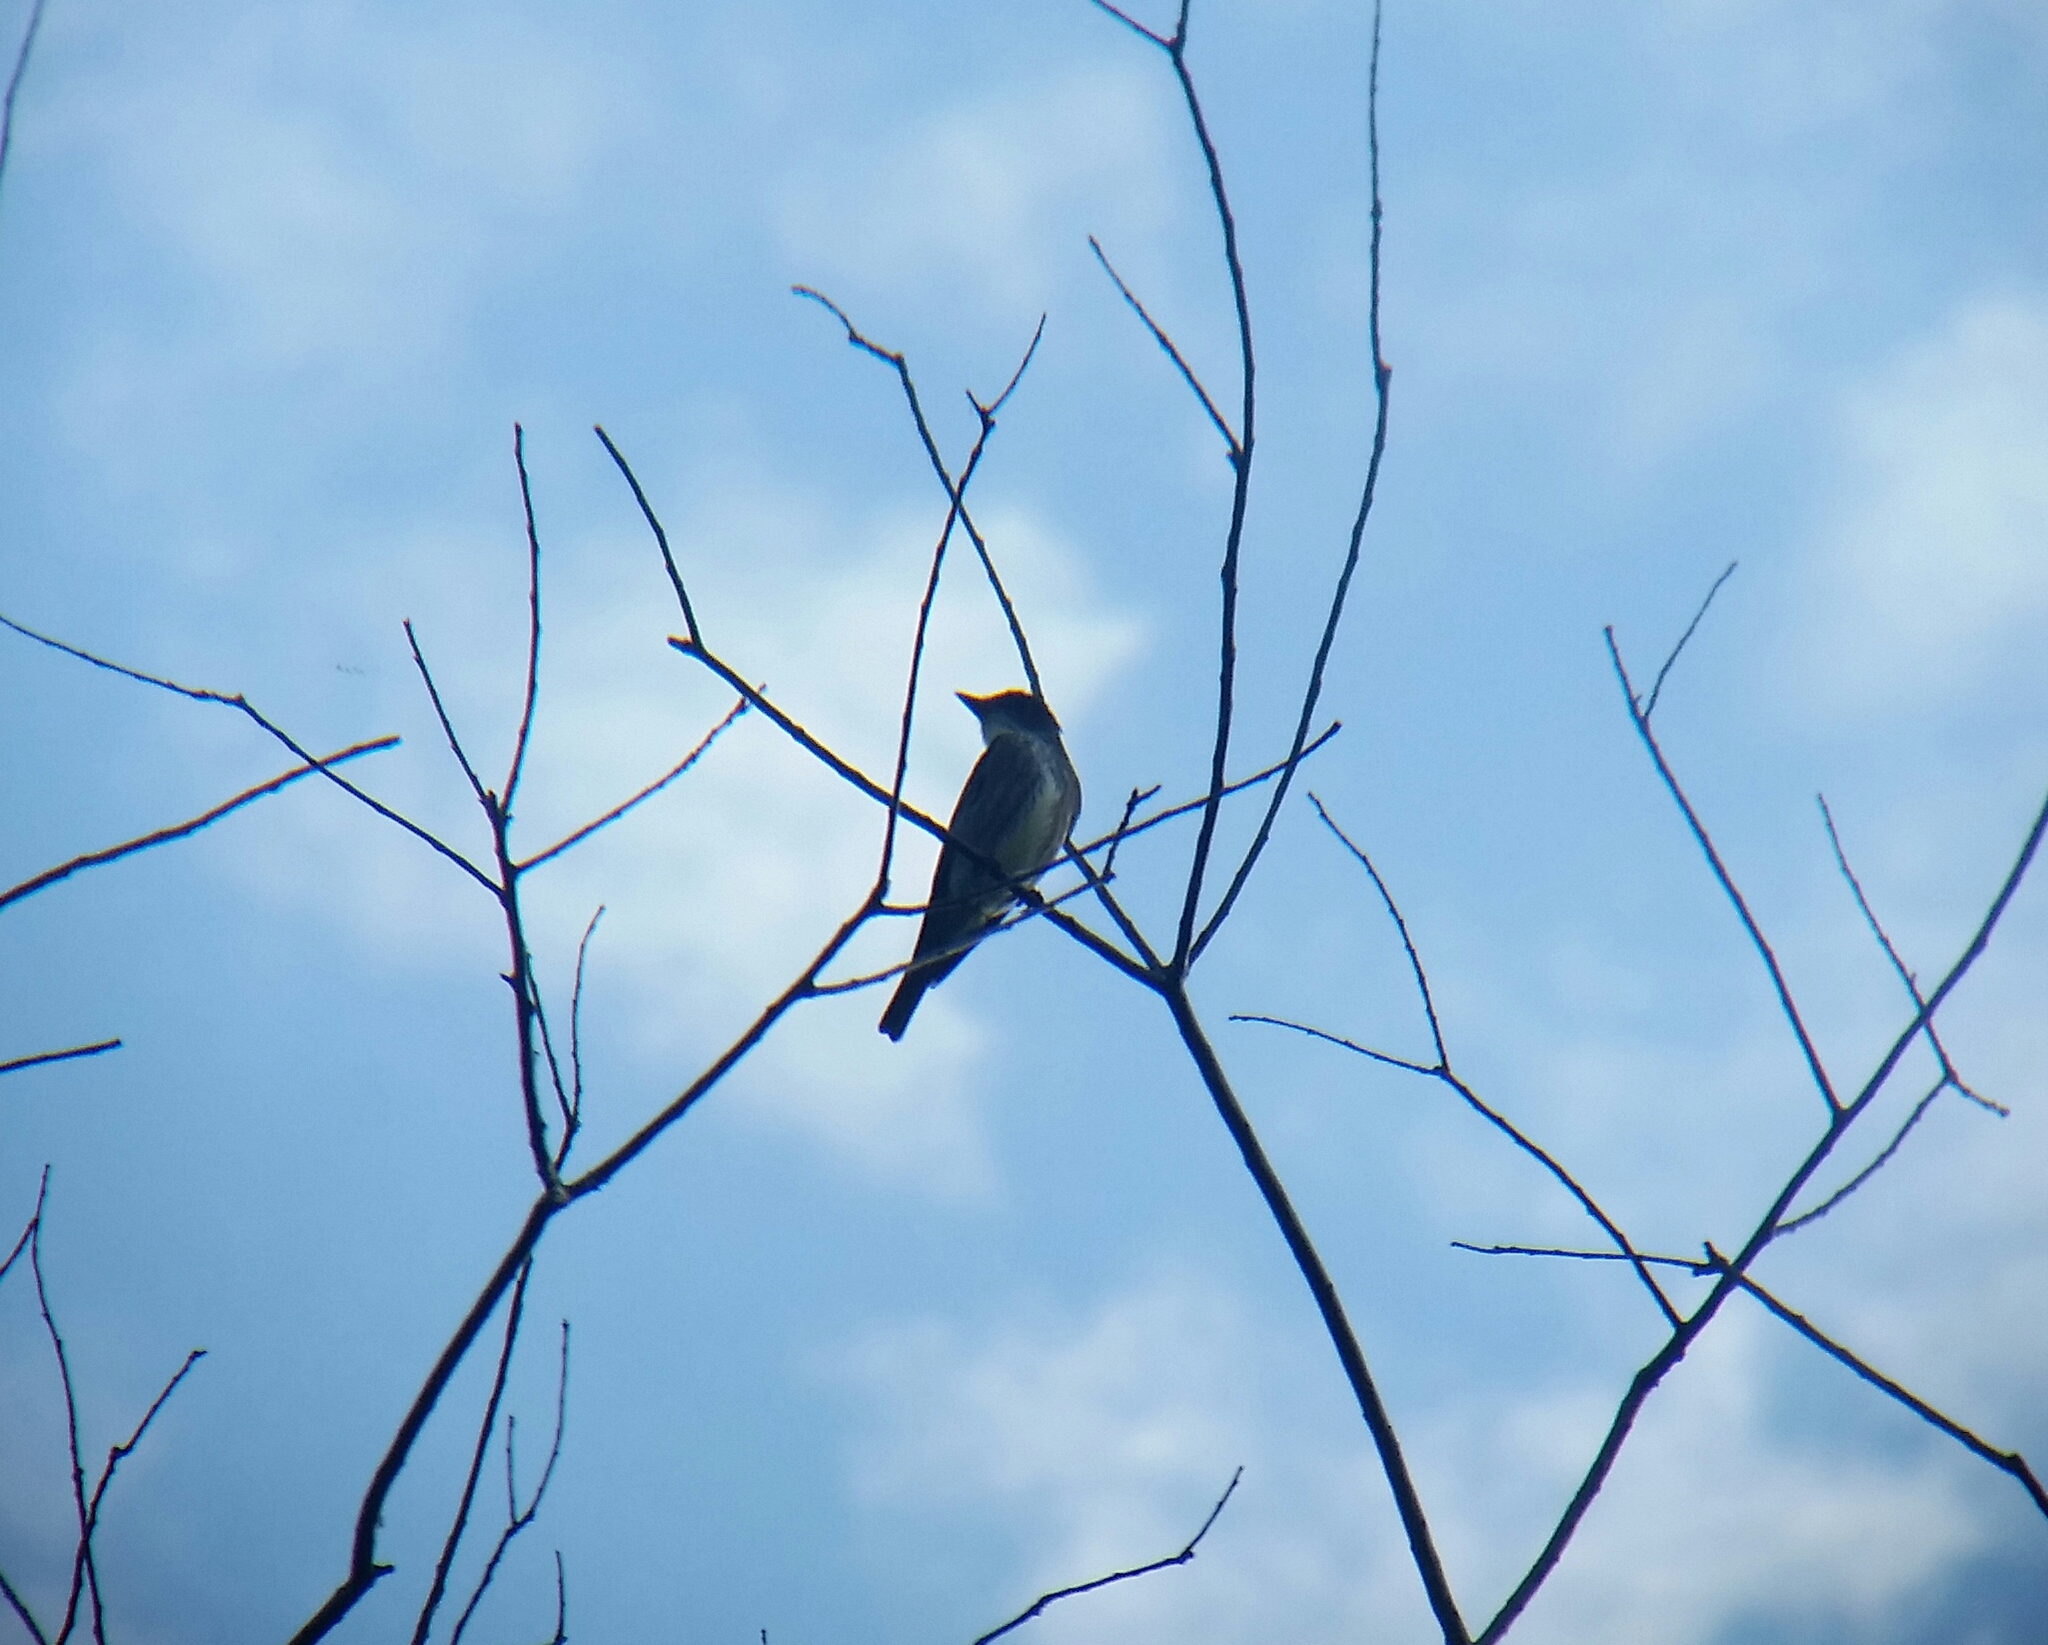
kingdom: Animalia
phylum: Chordata
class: Aves
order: Passeriformes
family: Tyrannidae
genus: Contopus
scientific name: Contopus cooperi
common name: Olive-sided flycatcher
